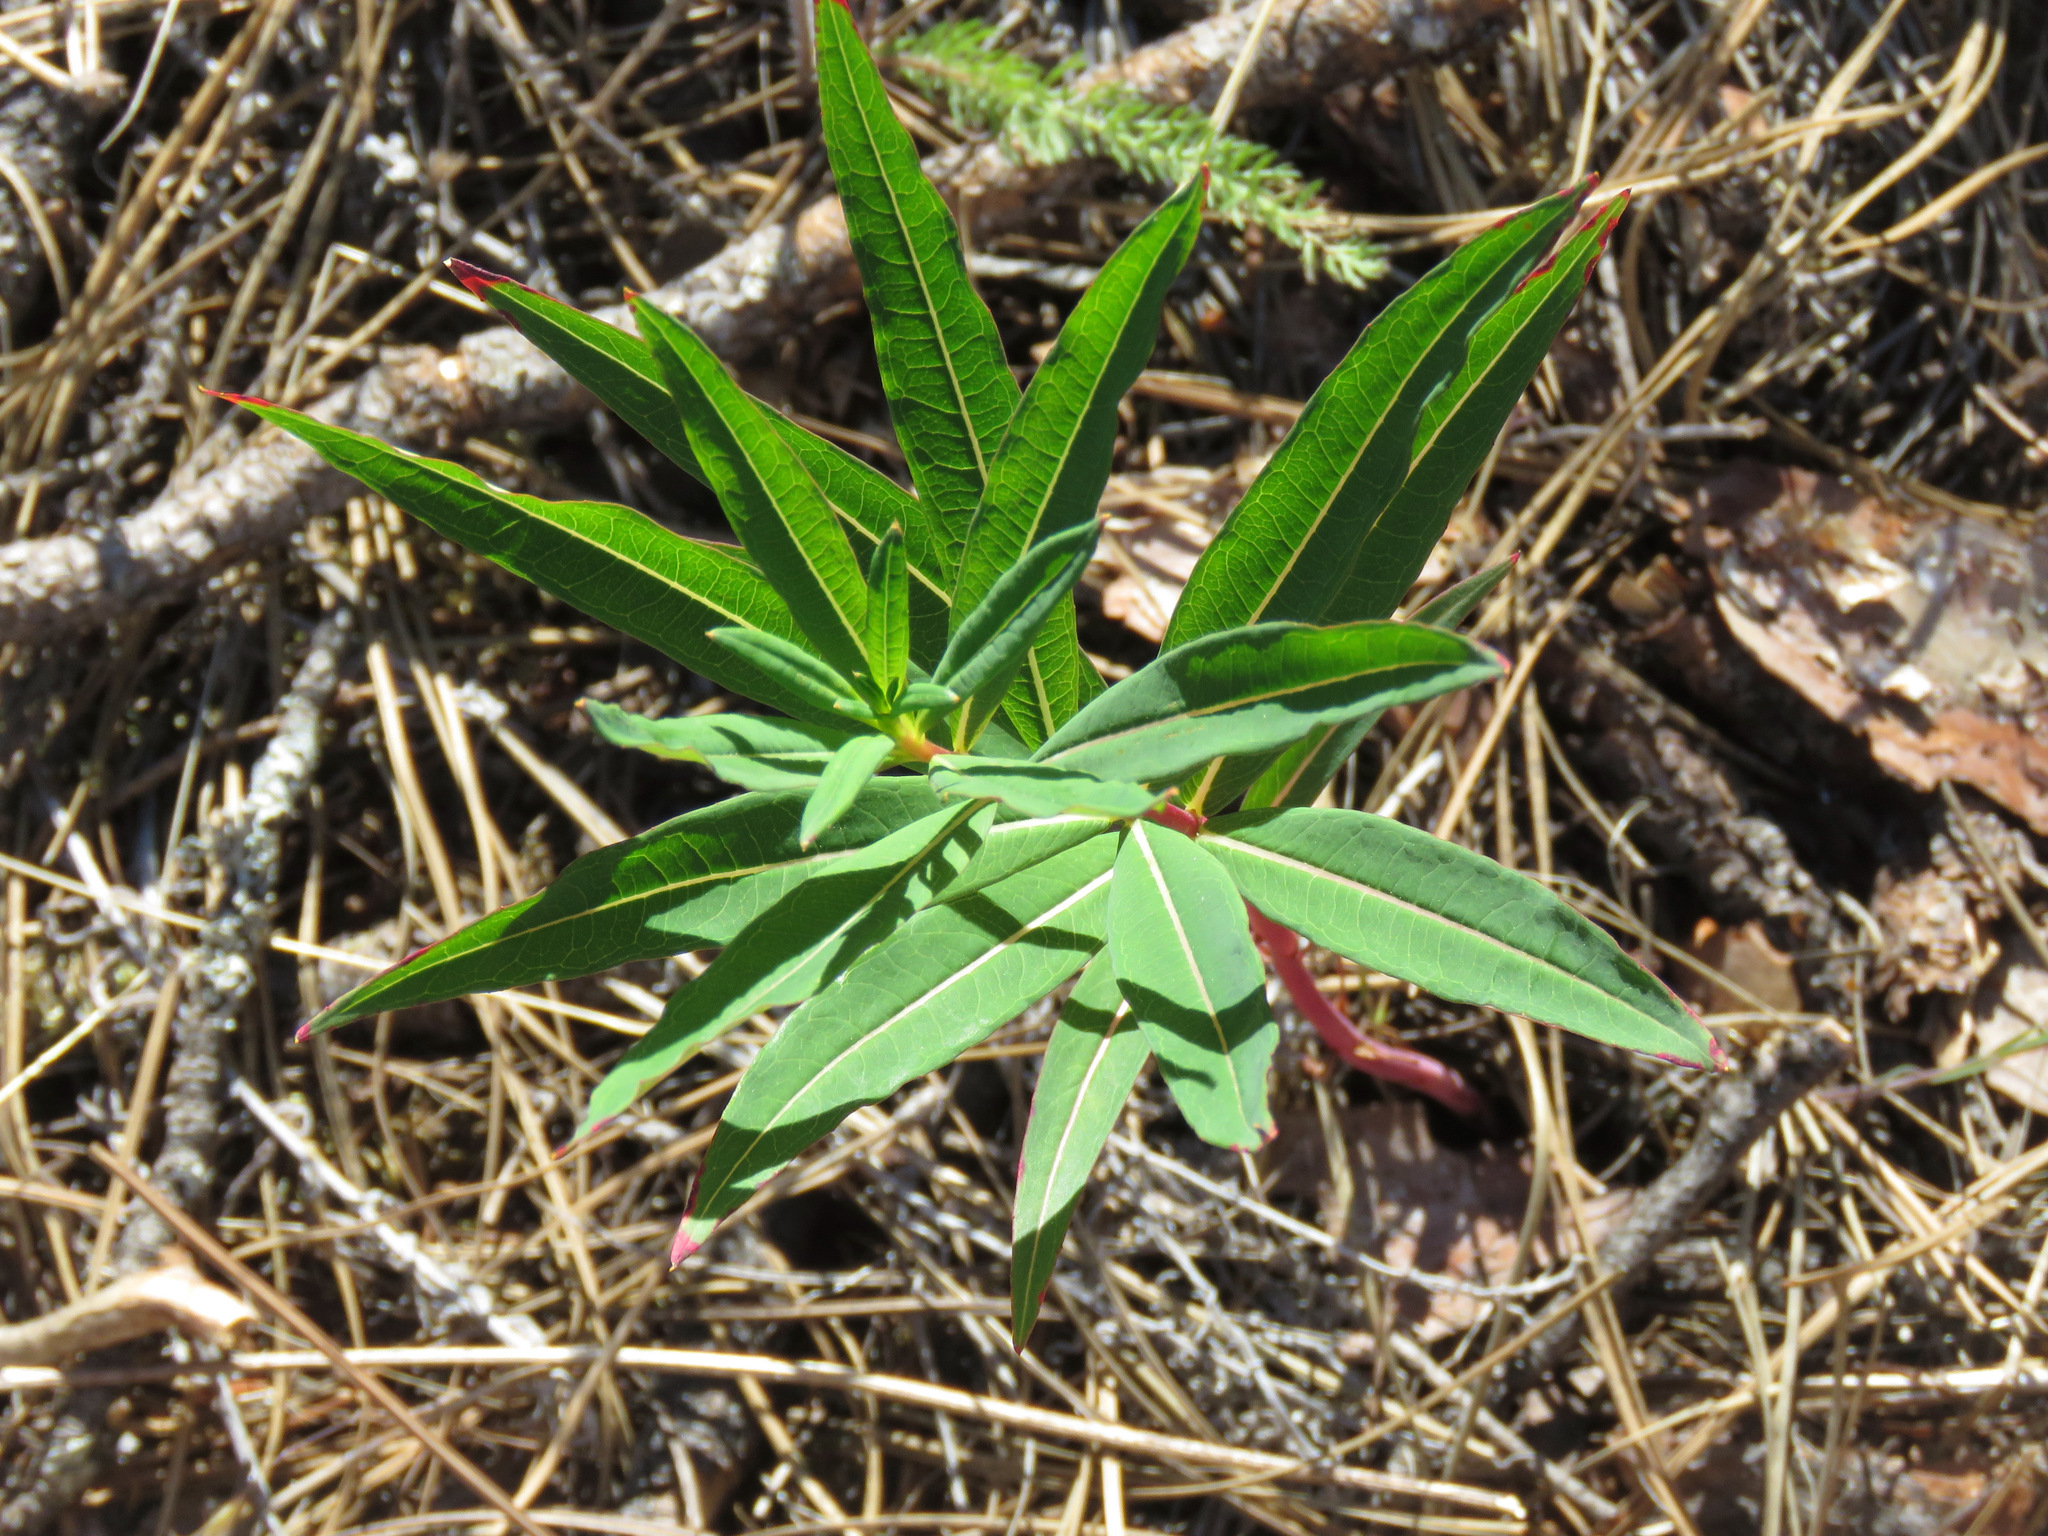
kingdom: Plantae
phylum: Tracheophyta
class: Magnoliopsida
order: Myrtales
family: Onagraceae
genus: Chamaenerion
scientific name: Chamaenerion angustifolium
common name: Fireweed
